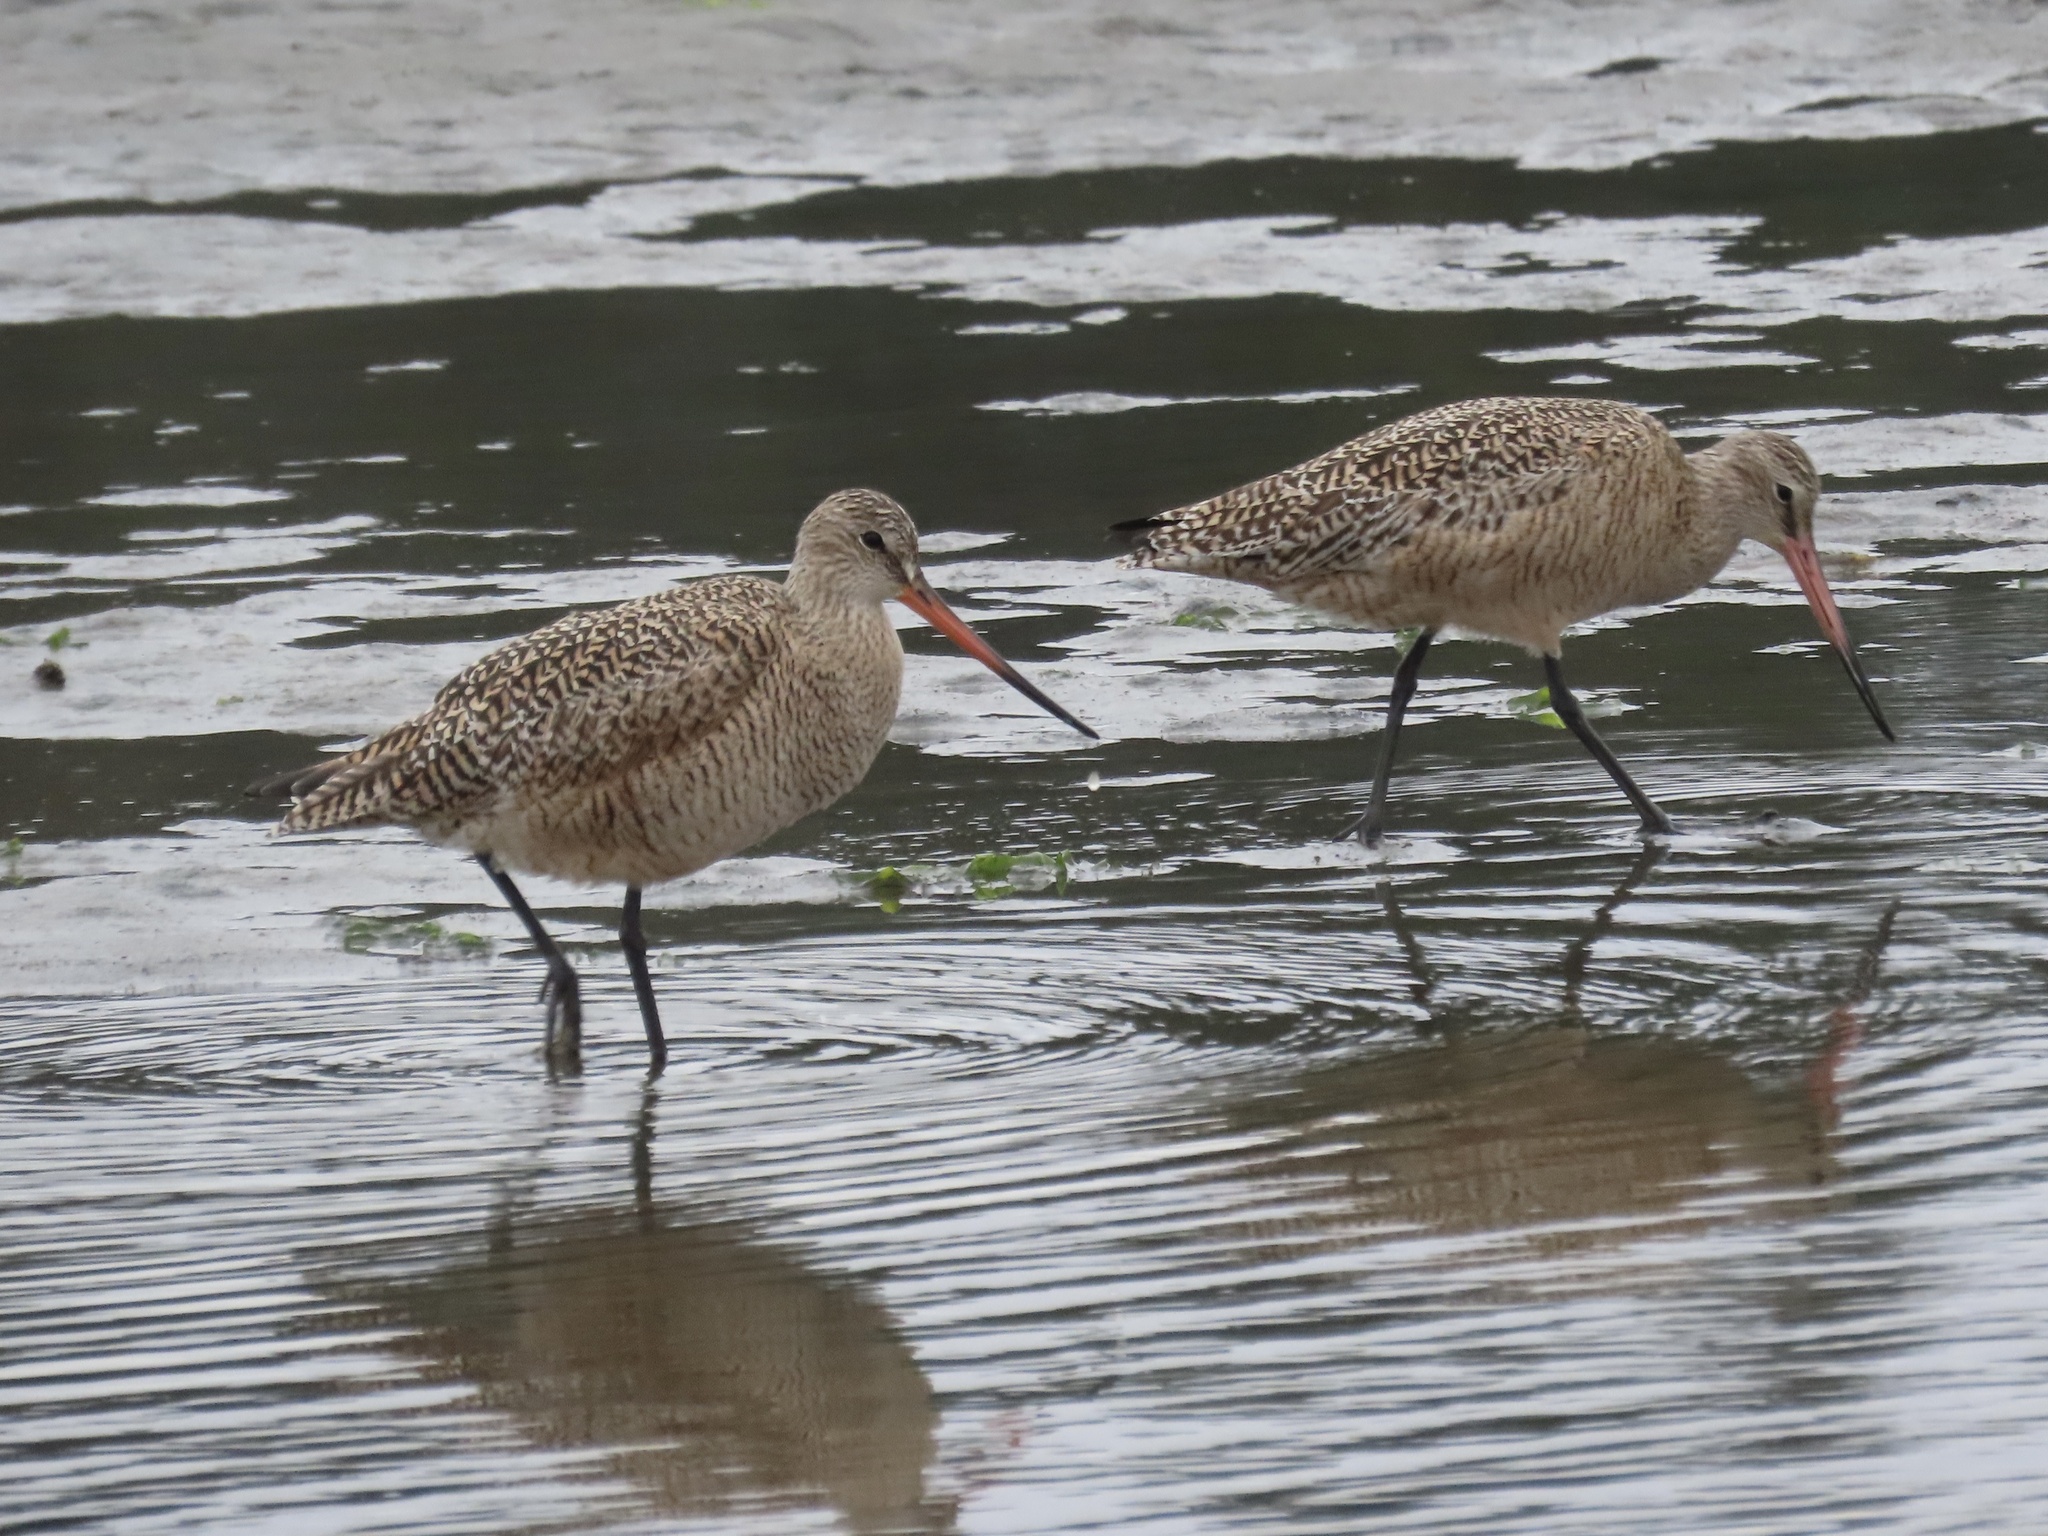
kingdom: Animalia
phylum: Chordata
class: Aves
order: Charadriiformes
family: Scolopacidae
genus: Limosa
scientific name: Limosa fedoa
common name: Marbled godwit
